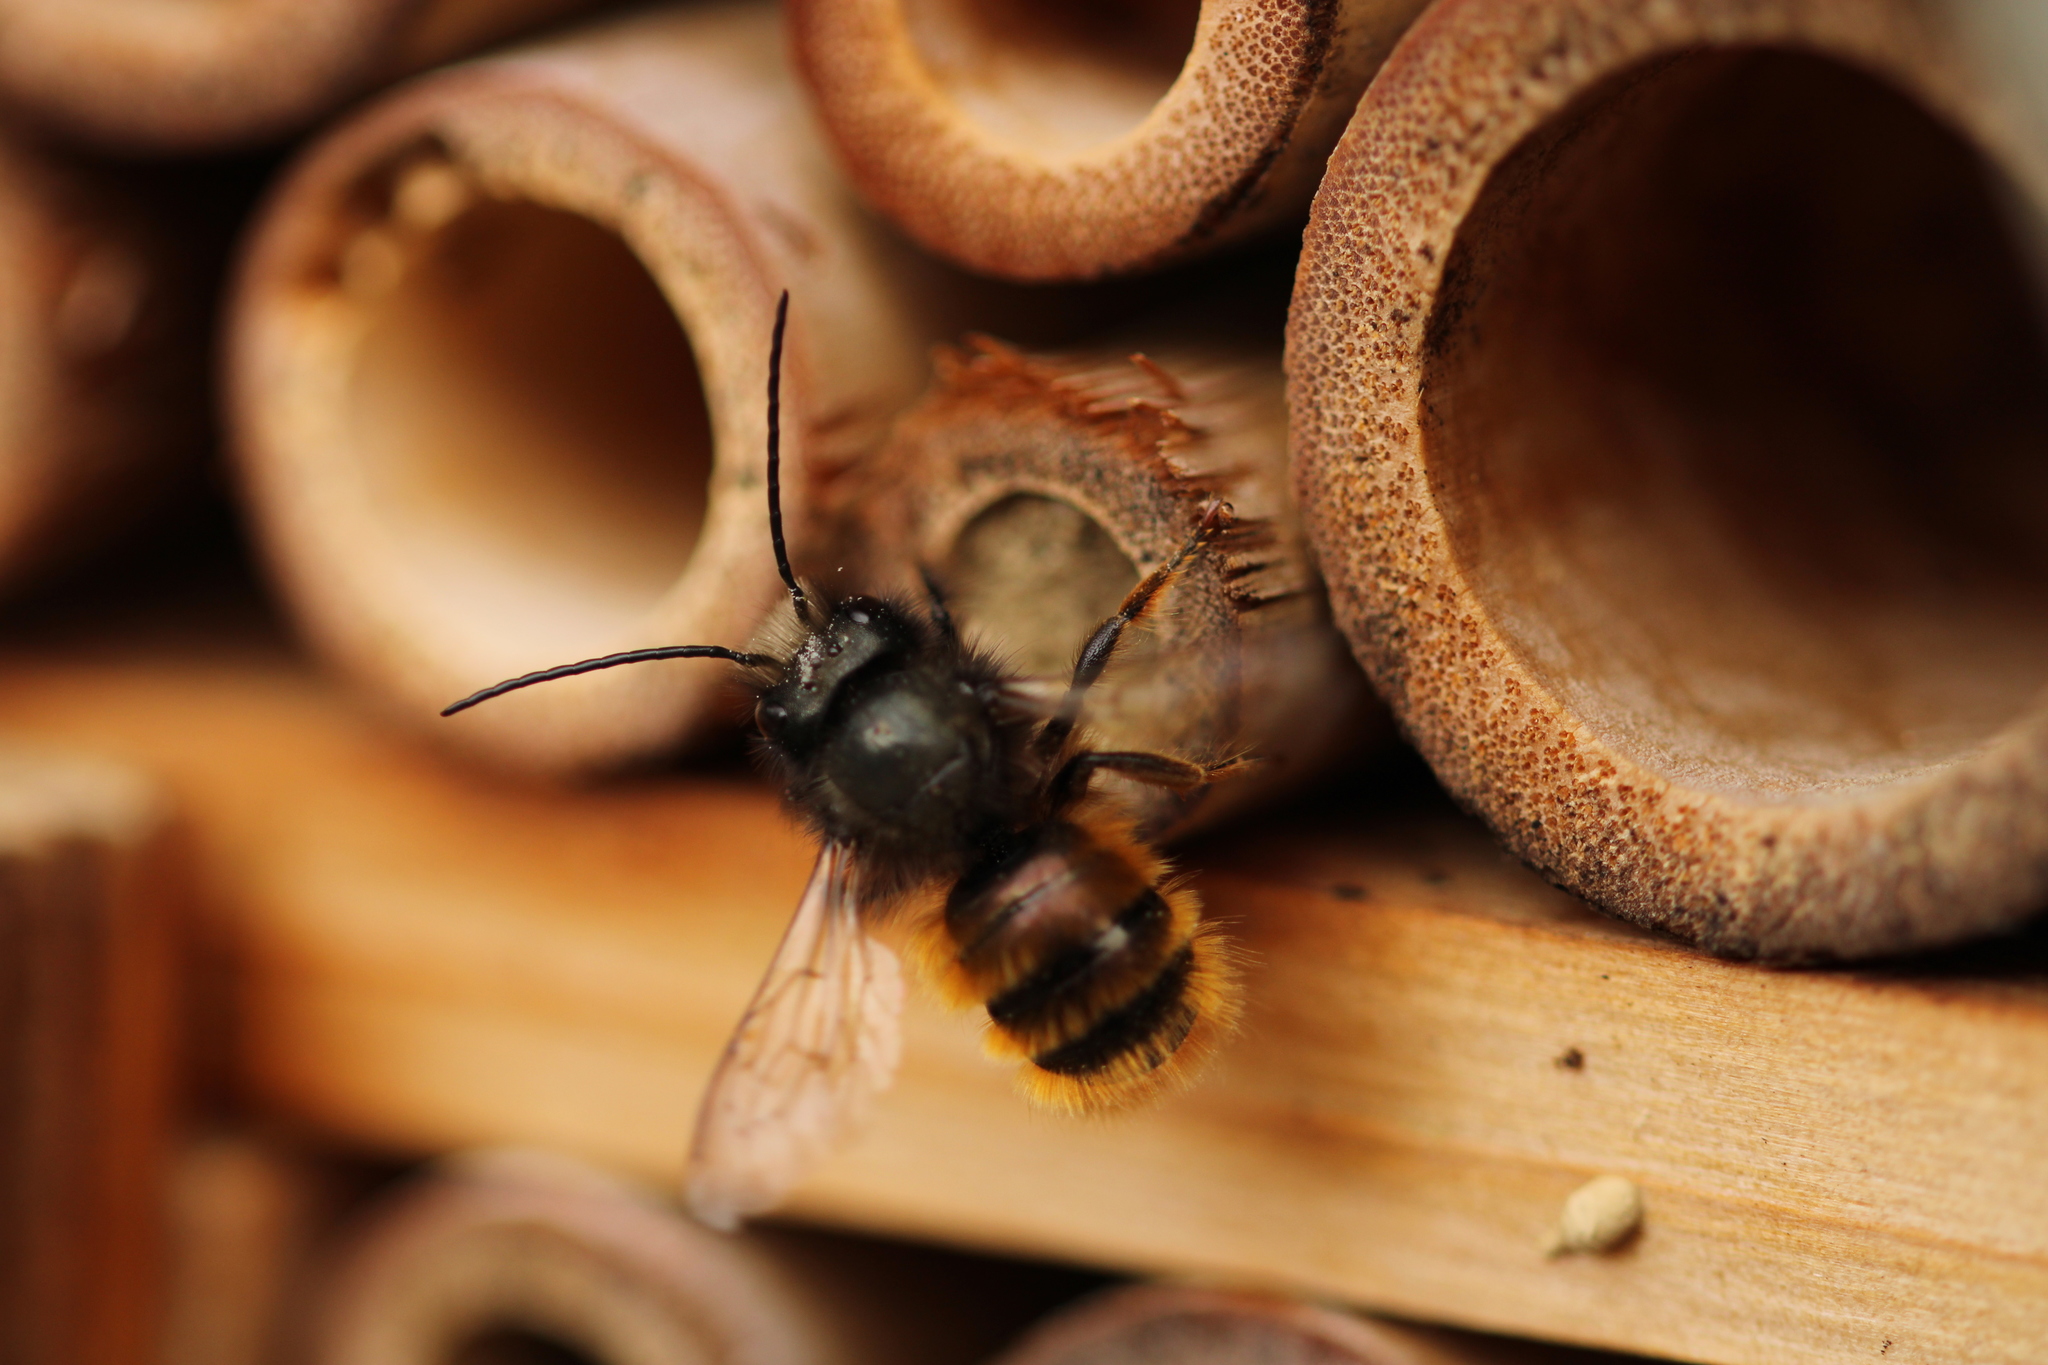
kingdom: Animalia
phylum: Arthropoda
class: Insecta
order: Hymenoptera
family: Megachilidae
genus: Osmia
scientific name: Osmia cornuta
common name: Mason bee
